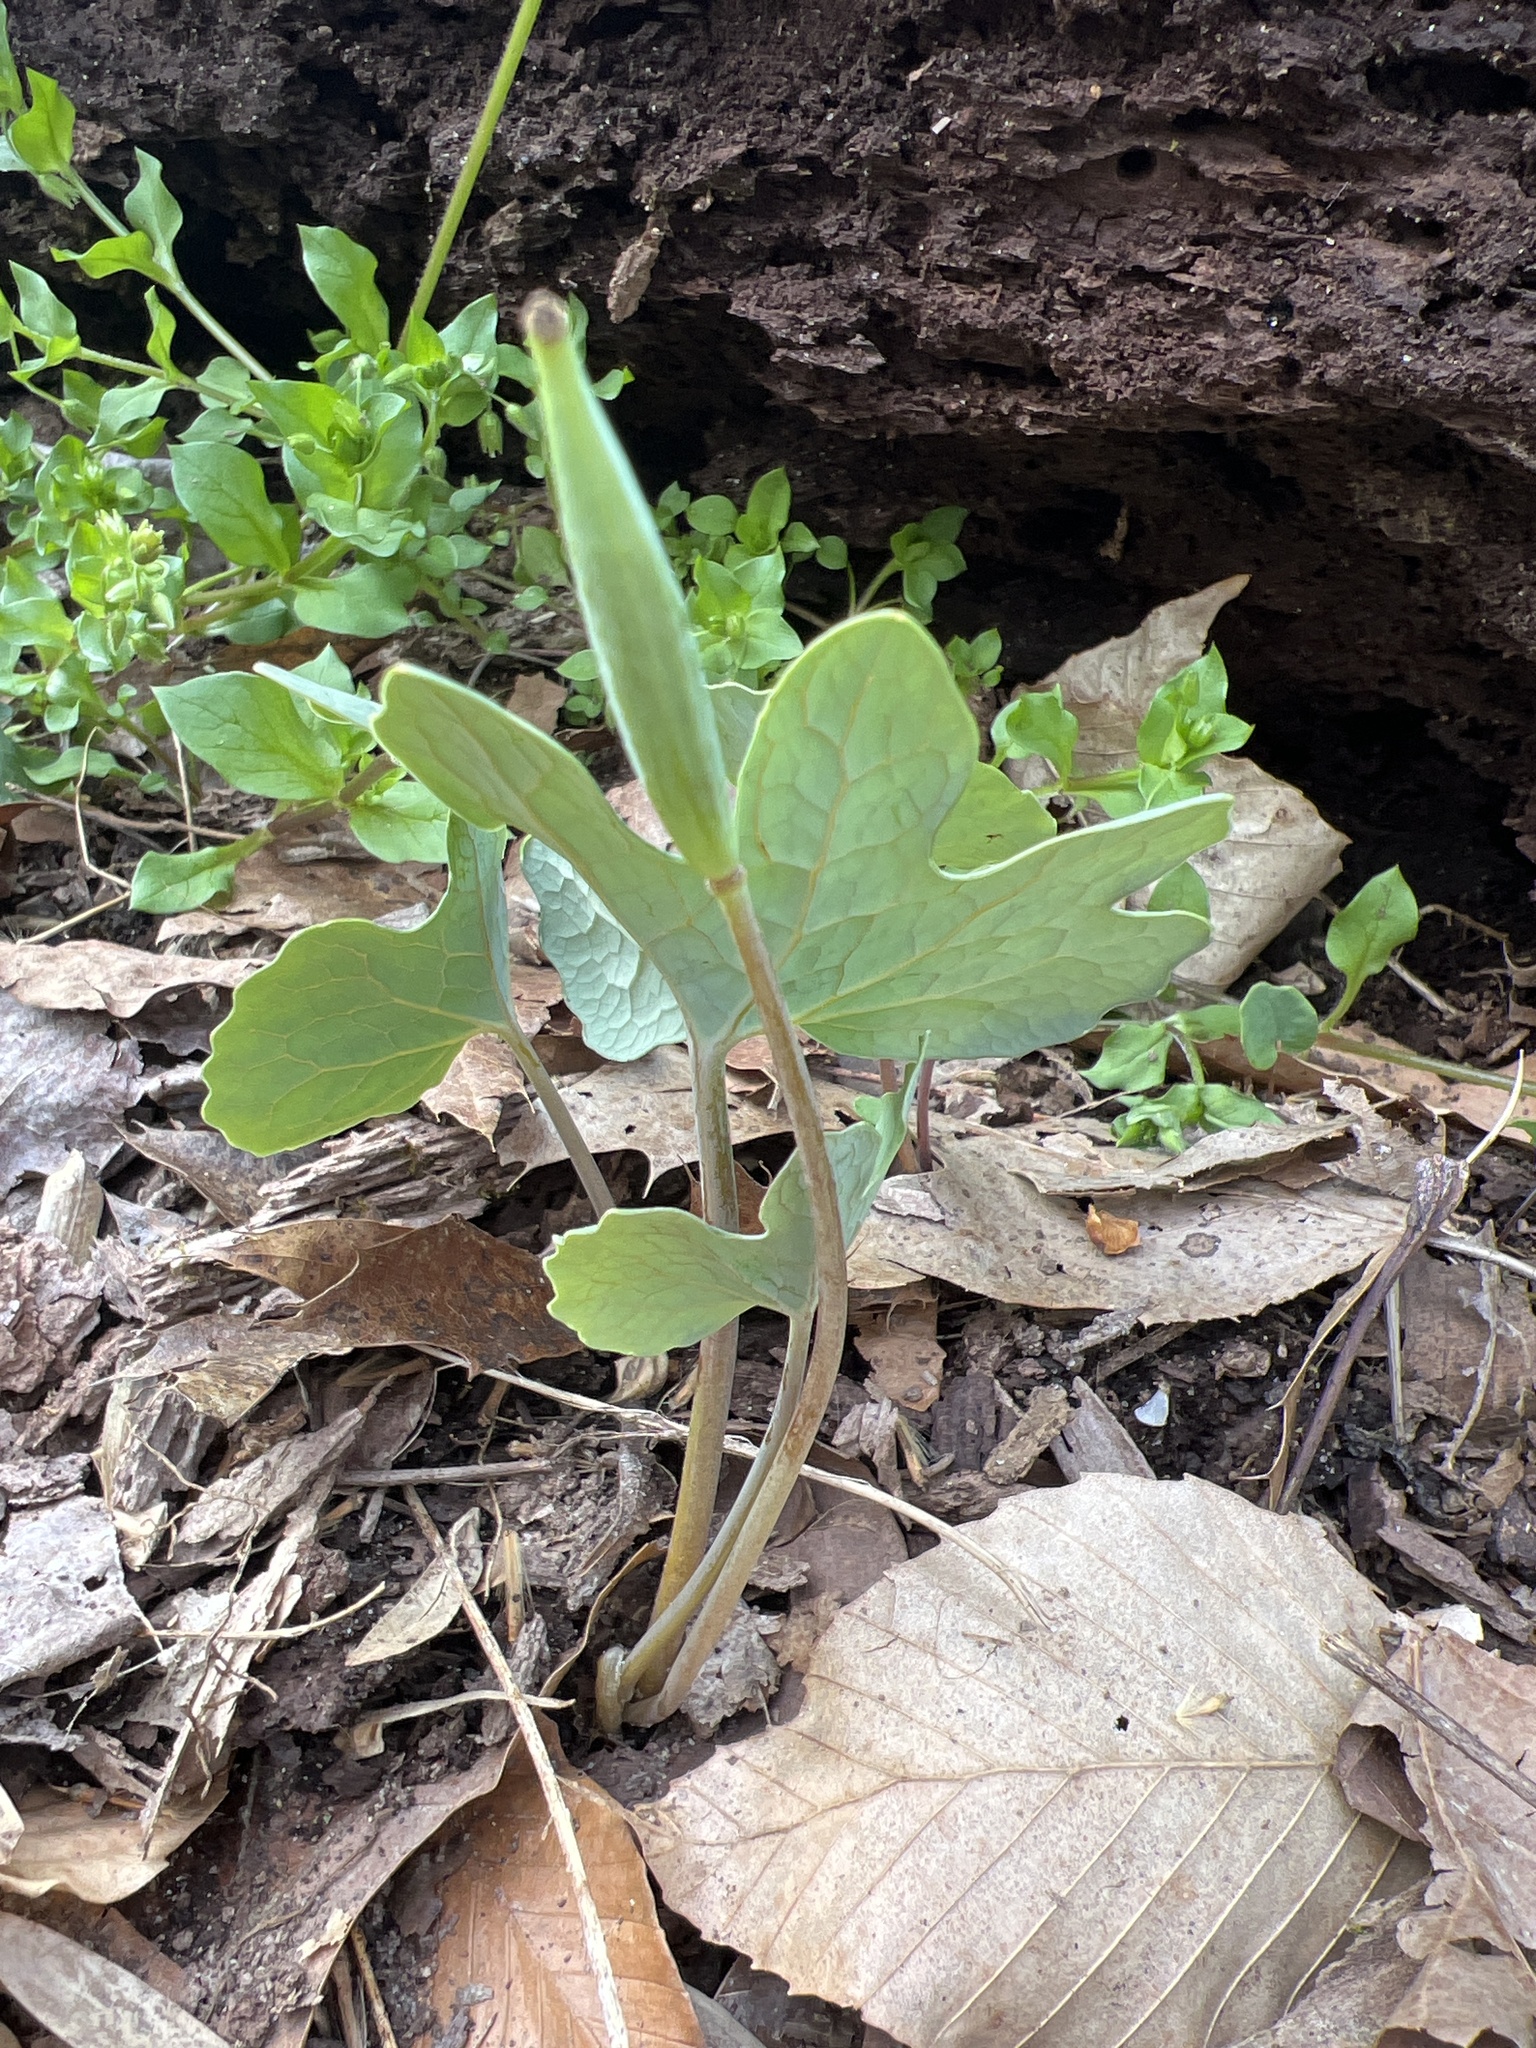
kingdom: Plantae
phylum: Tracheophyta
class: Magnoliopsida
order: Ranunculales
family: Papaveraceae
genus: Sanguinaria
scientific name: Sanguinaria canadensis
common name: Bloodroot
